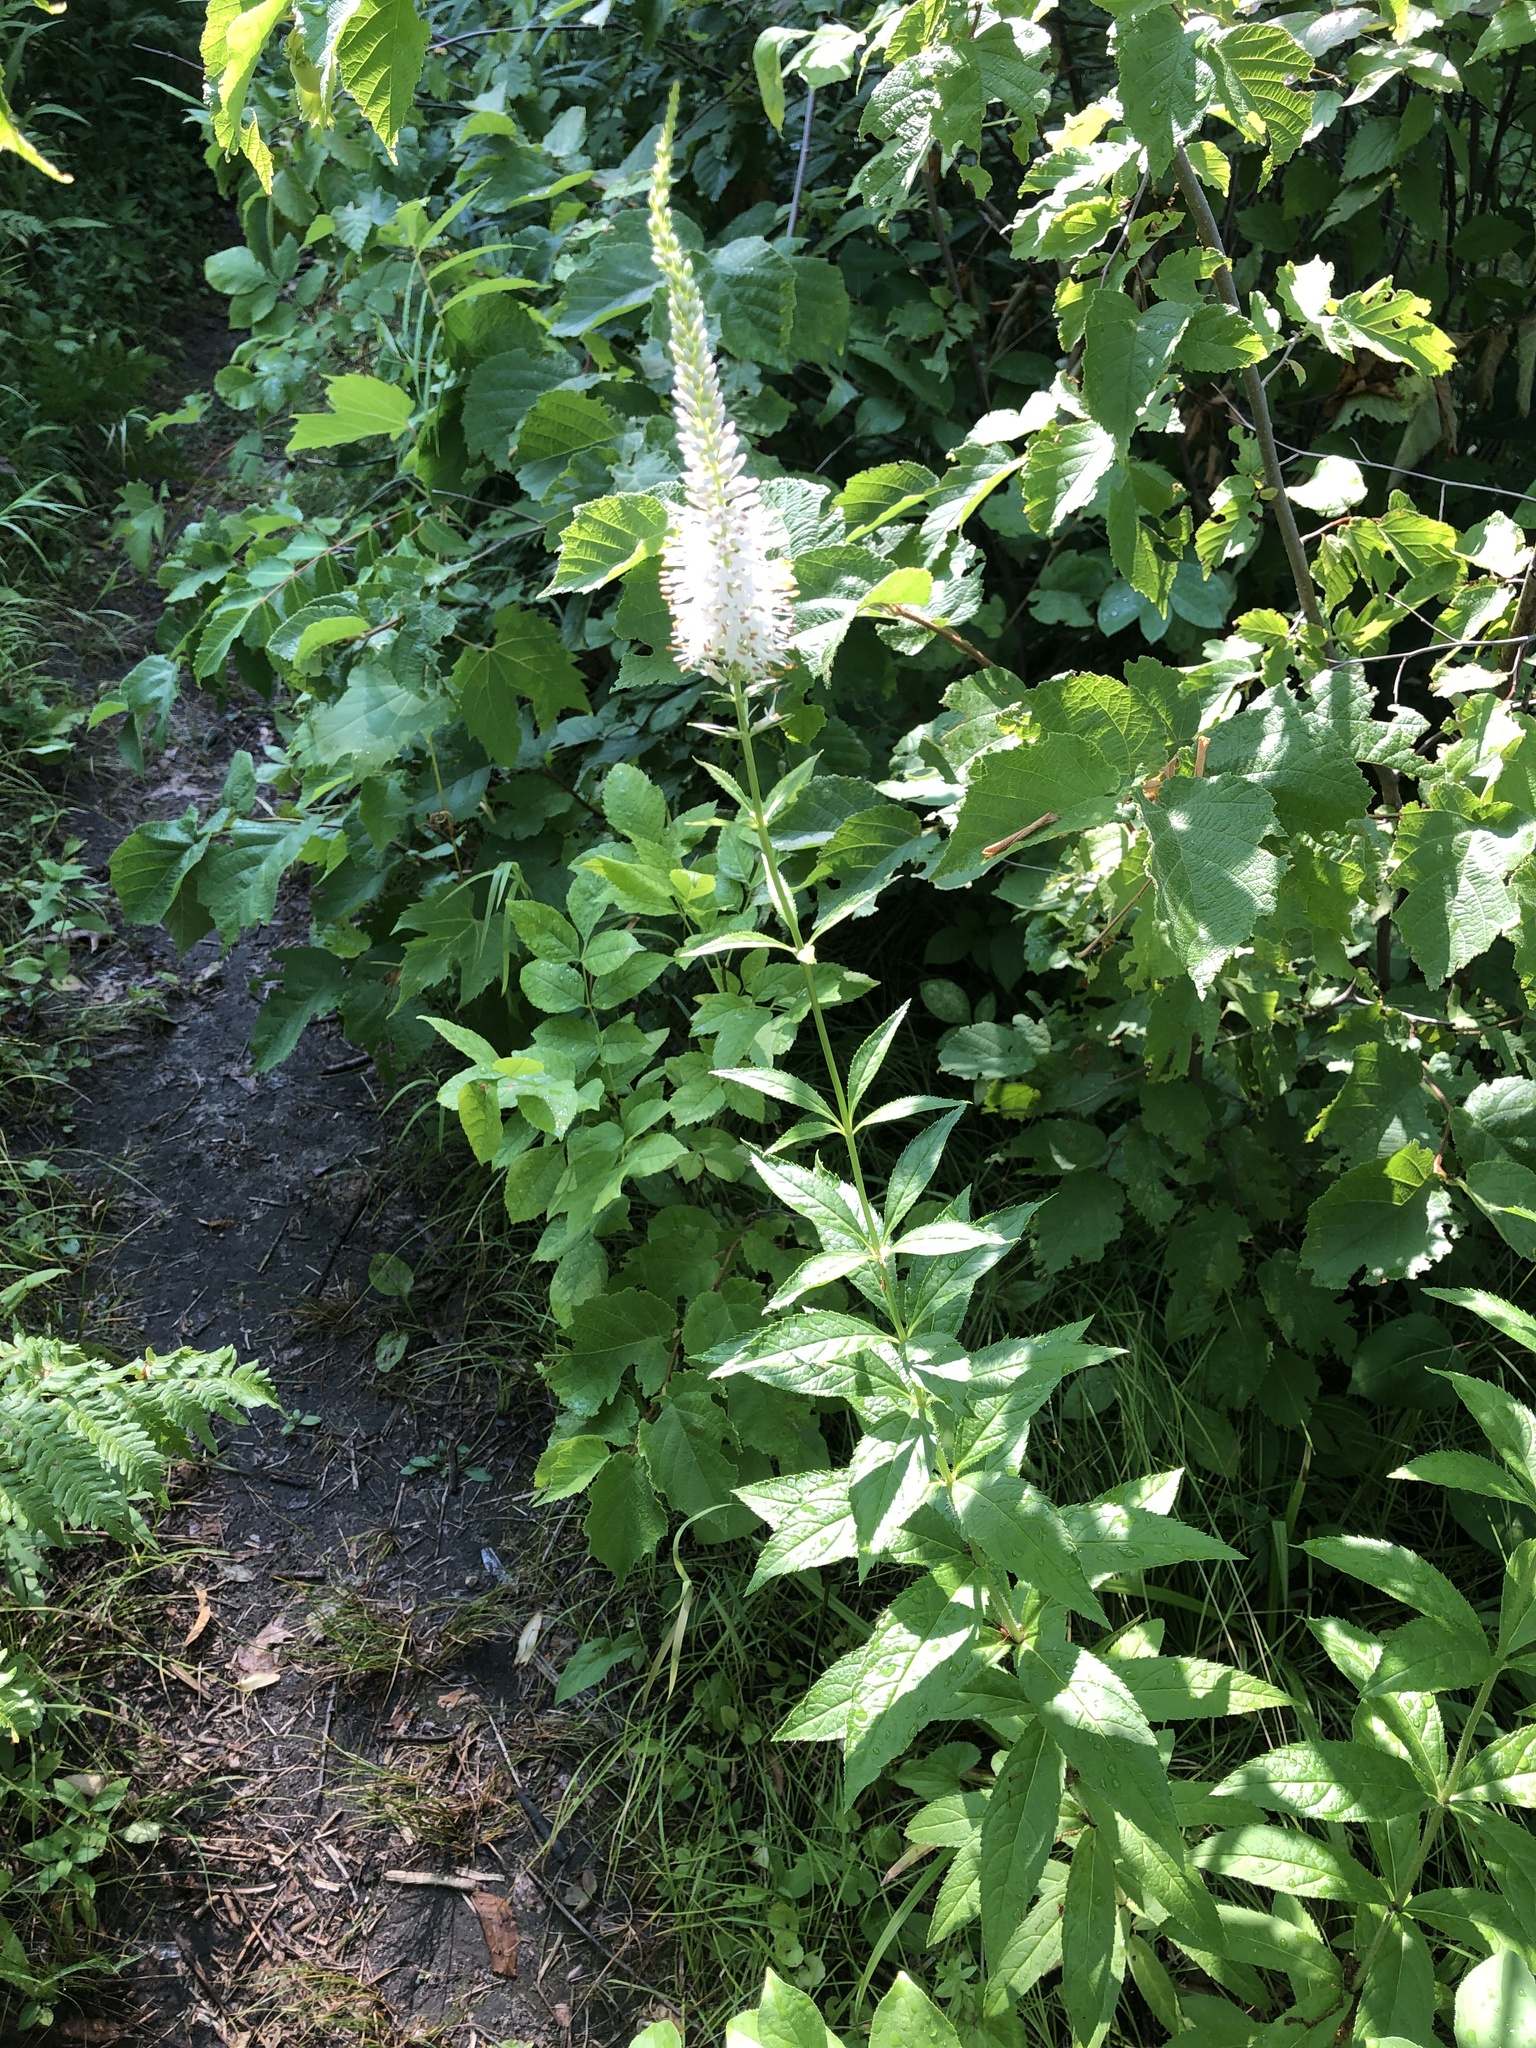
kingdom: Plantae
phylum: Tracheophyta
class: Magnoliopsida
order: Lamiales
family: Plantaginaceae
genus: Veronicastrum
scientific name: Veronicastrum virginicum
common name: Blackroot
